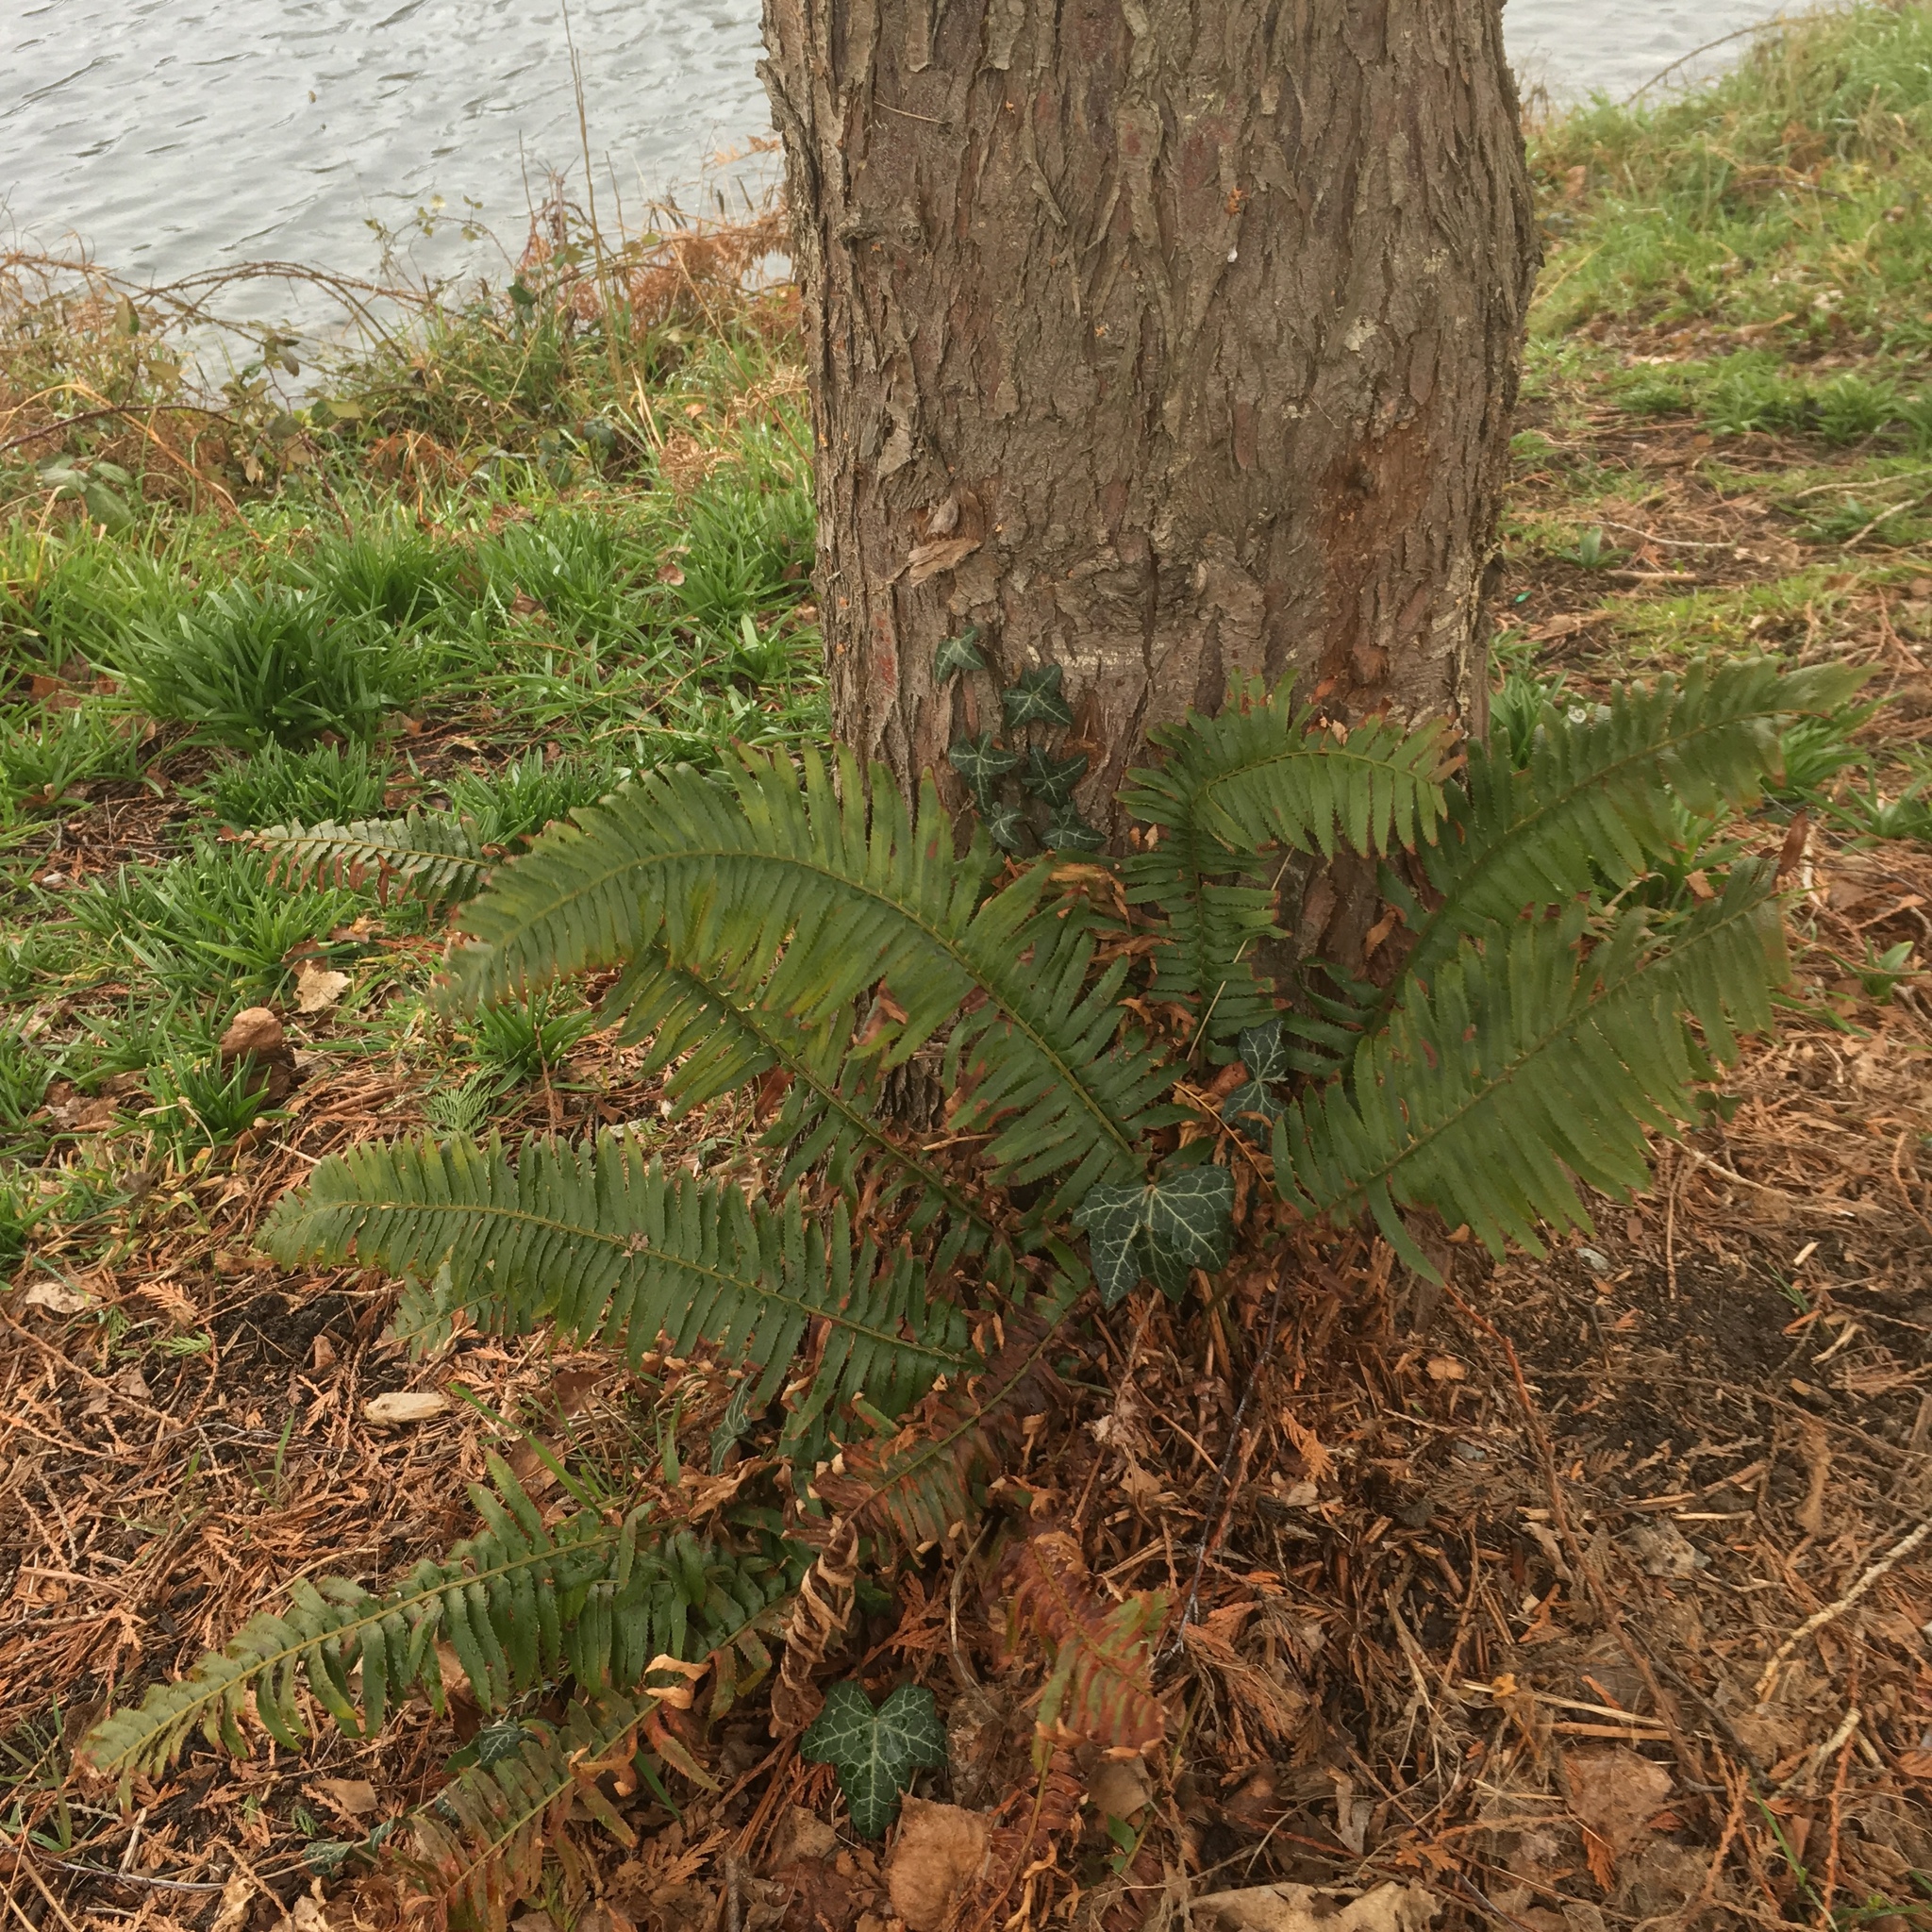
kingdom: Plantae
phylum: Tracheophyta
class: Polypodiopsida
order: Polypodiales
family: Dryopteridaceae
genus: Polystichum
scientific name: Polystichum munitum
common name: Western sword-fern
